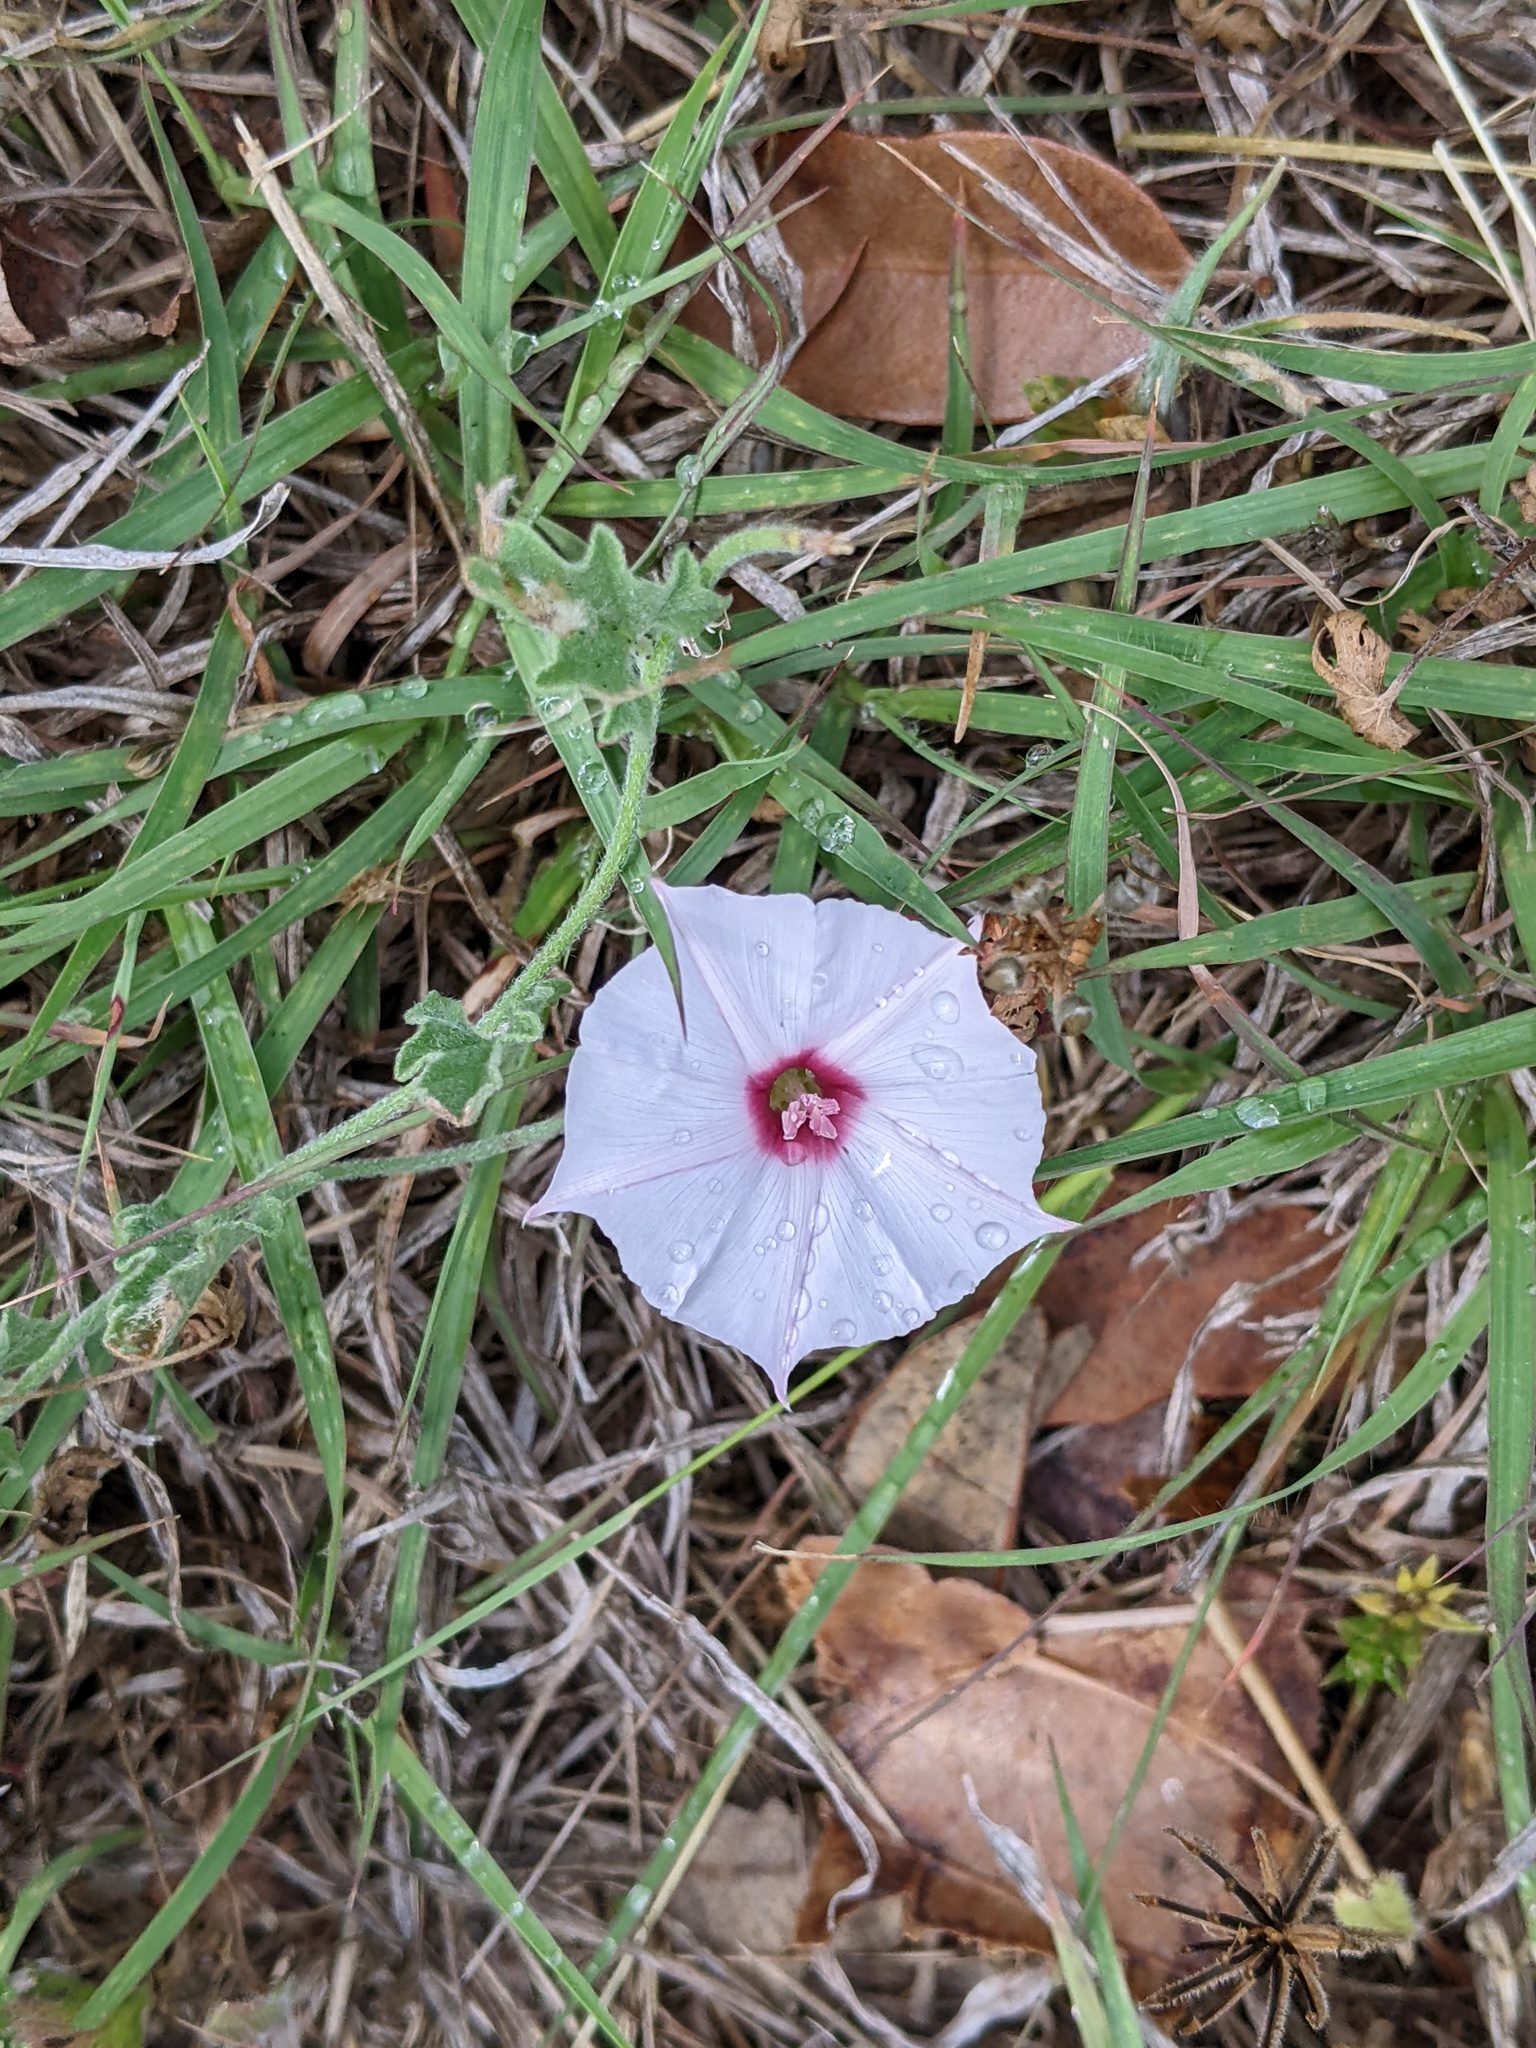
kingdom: Plantae
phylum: Tracheophyta
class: Magnoliopsida
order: Solanales
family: Convolvulaceae
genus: Convolvulus
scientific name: Convolvulus equitans
